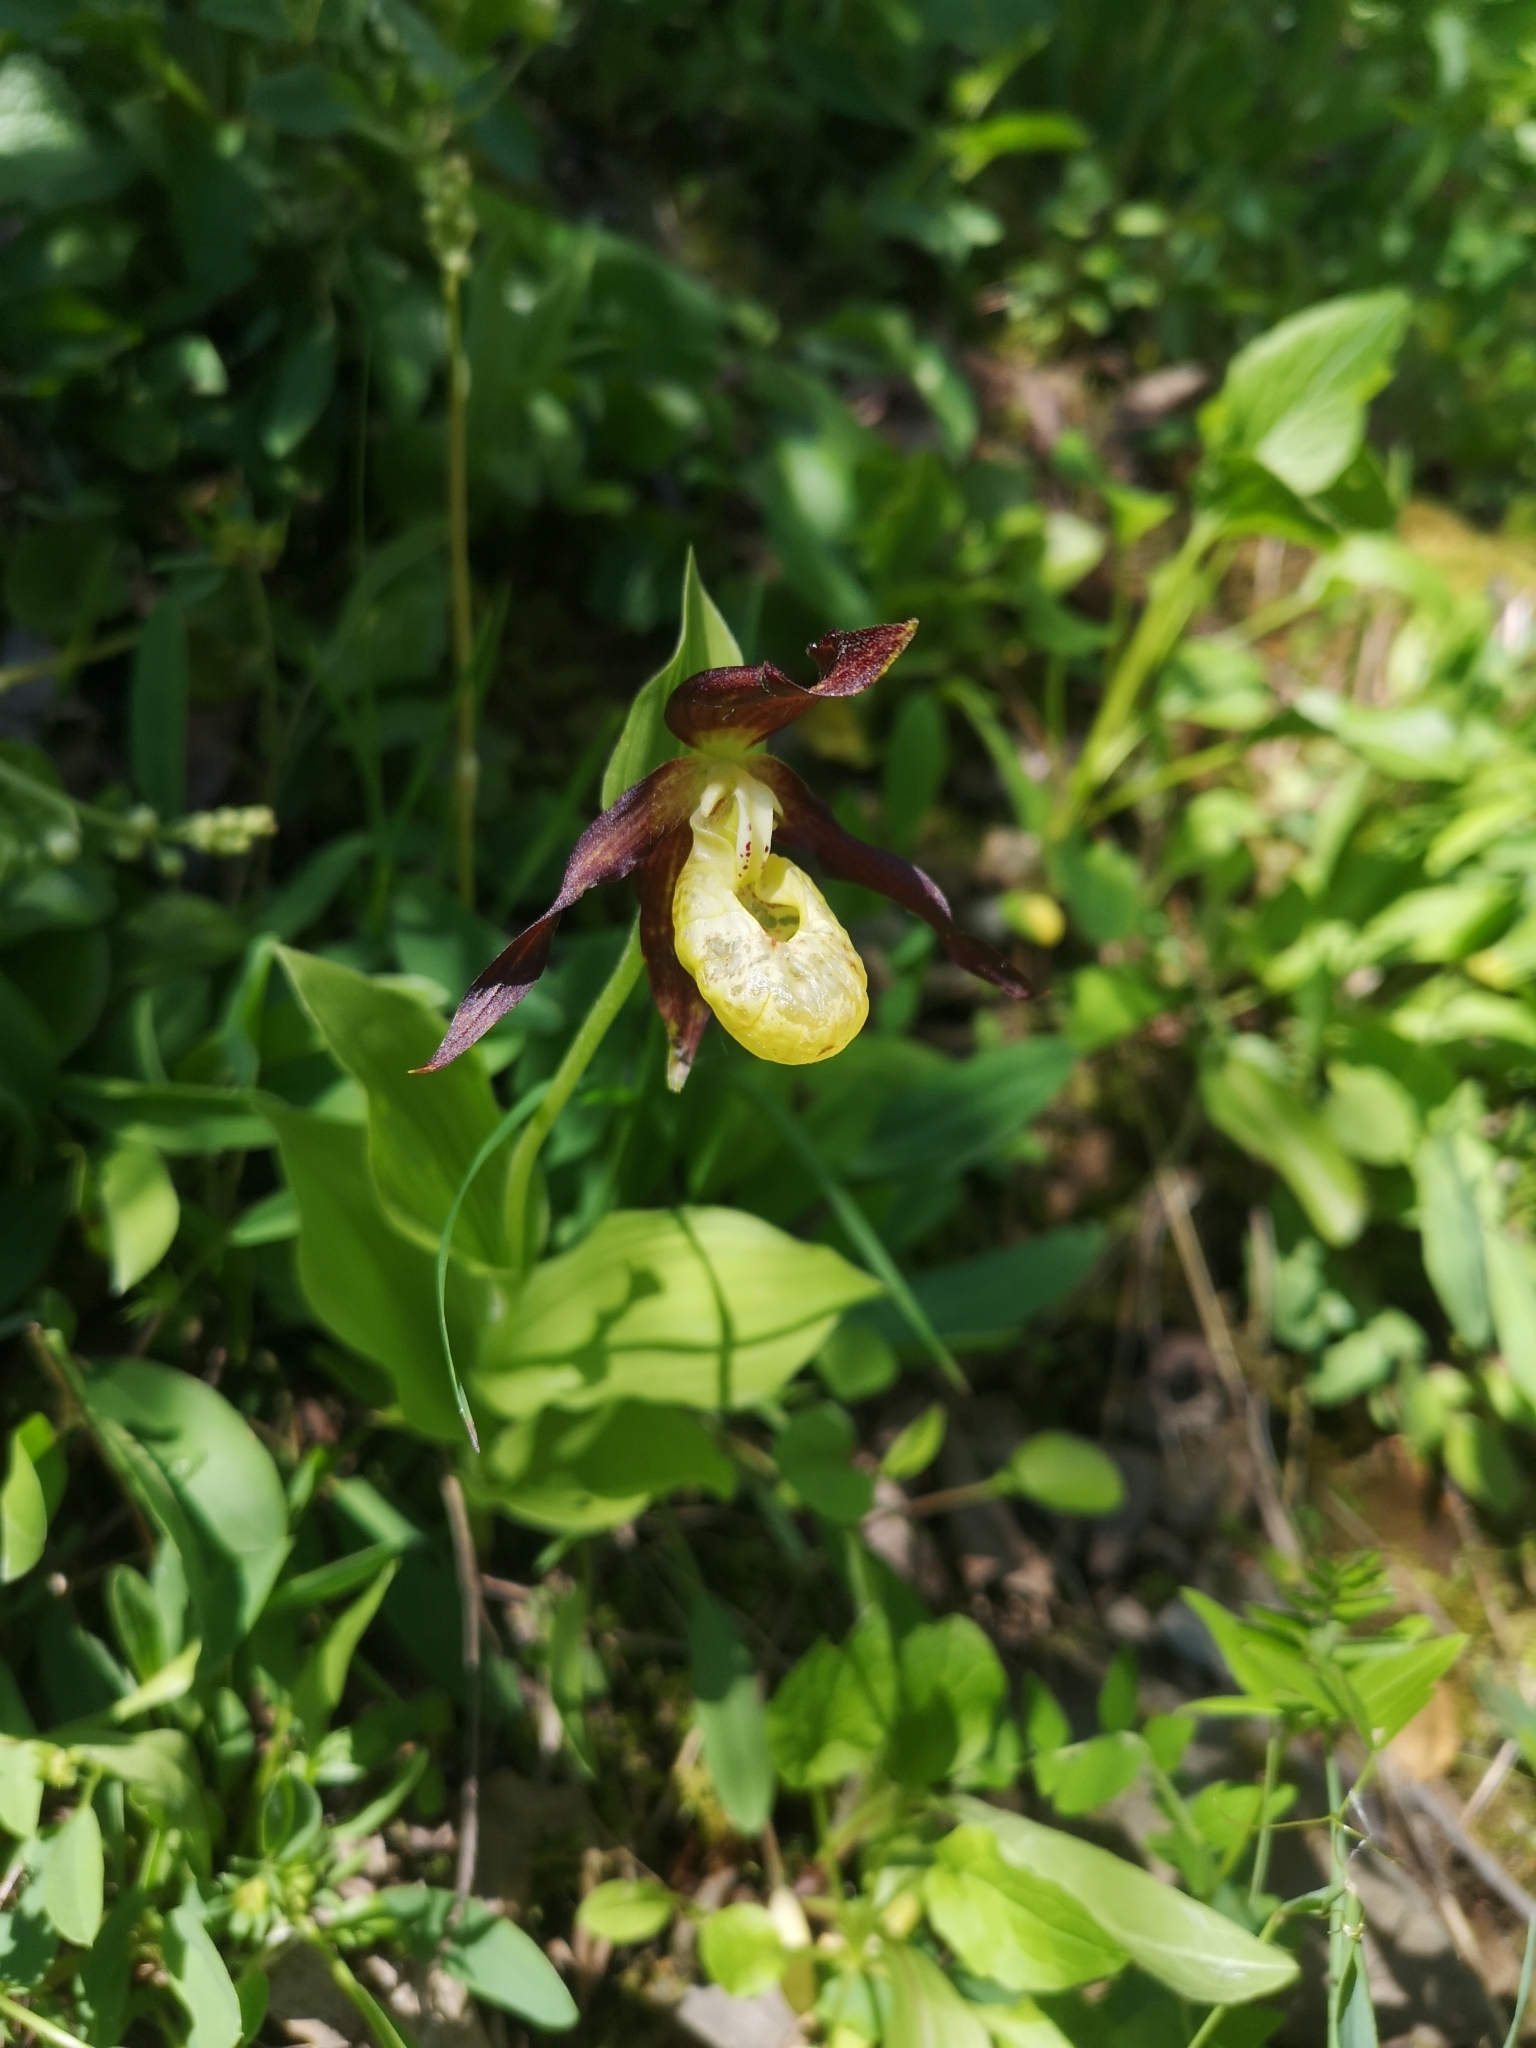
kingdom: Plantae
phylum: Tracheophyta
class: Liliopsida
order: Asparagales
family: Orchidaceae
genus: Cypripedium
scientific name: Cypripedium calceolus
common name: Lady's-slipper
